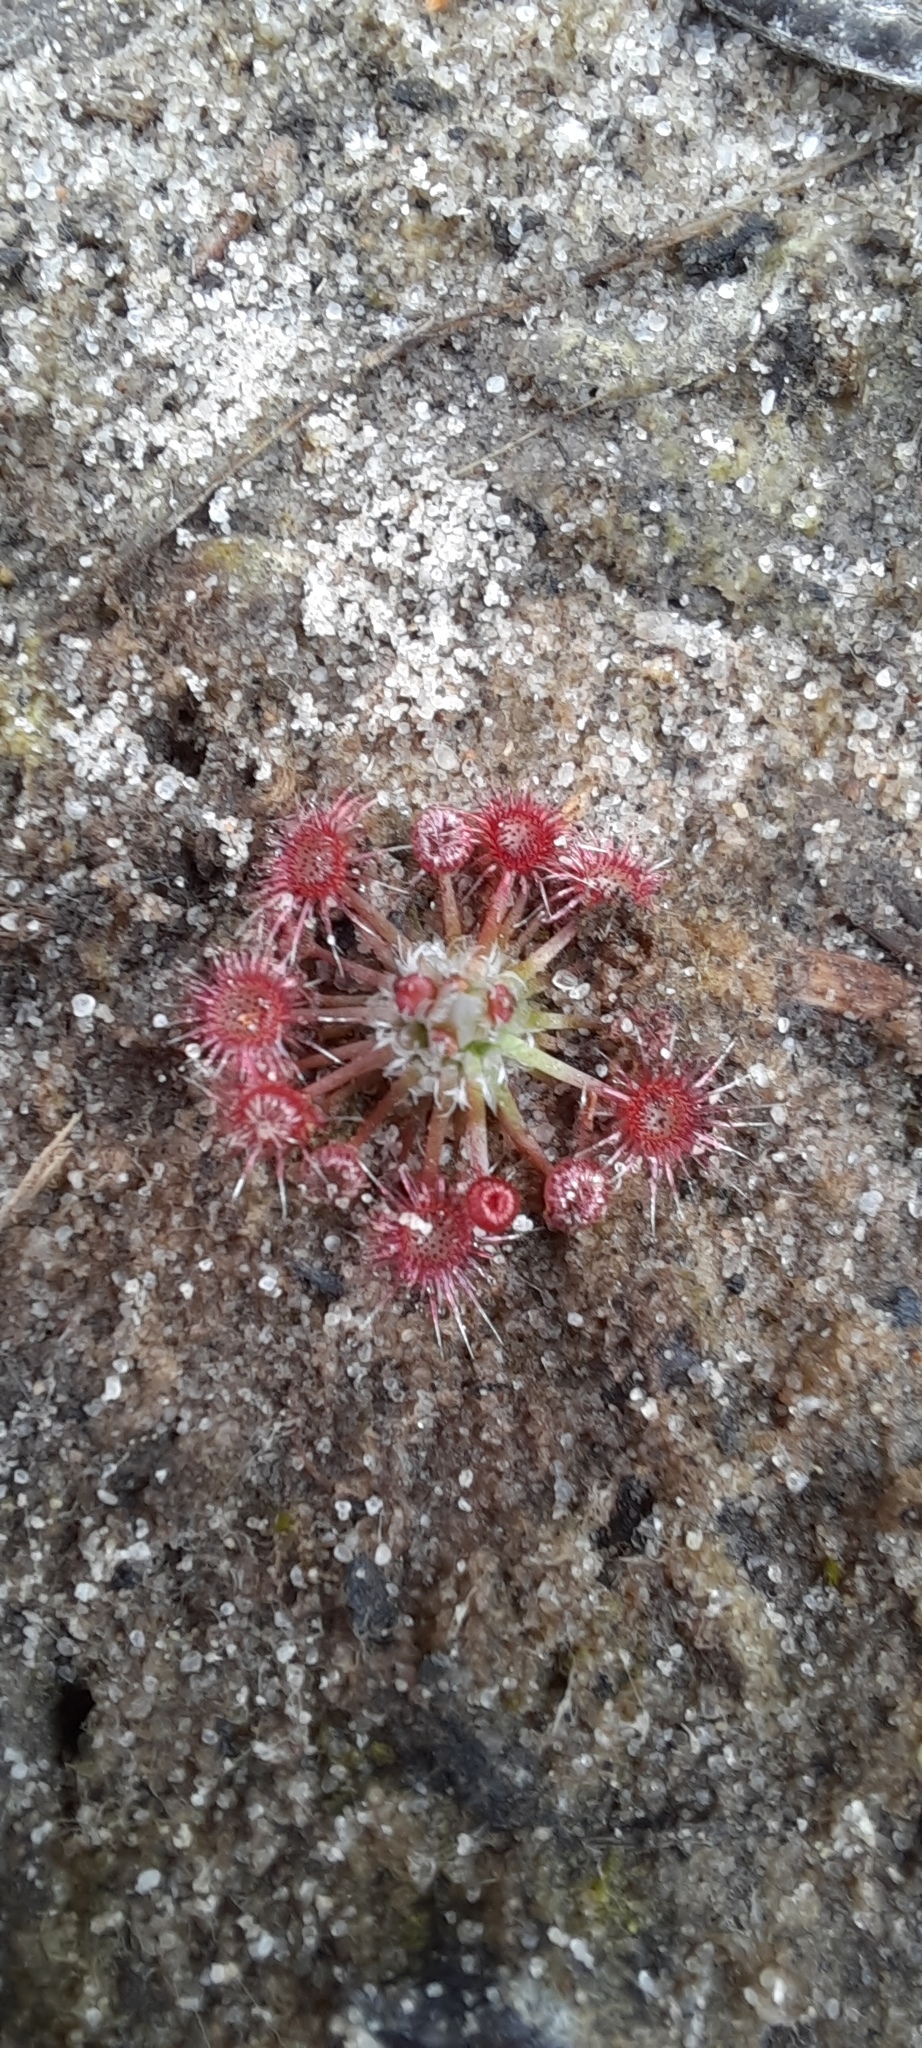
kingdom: Plantae
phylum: Tracheophyta
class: Magnoliopsida
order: Caryophyllales
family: Droseraceae
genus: Drosera
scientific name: Drosera pygmaea
